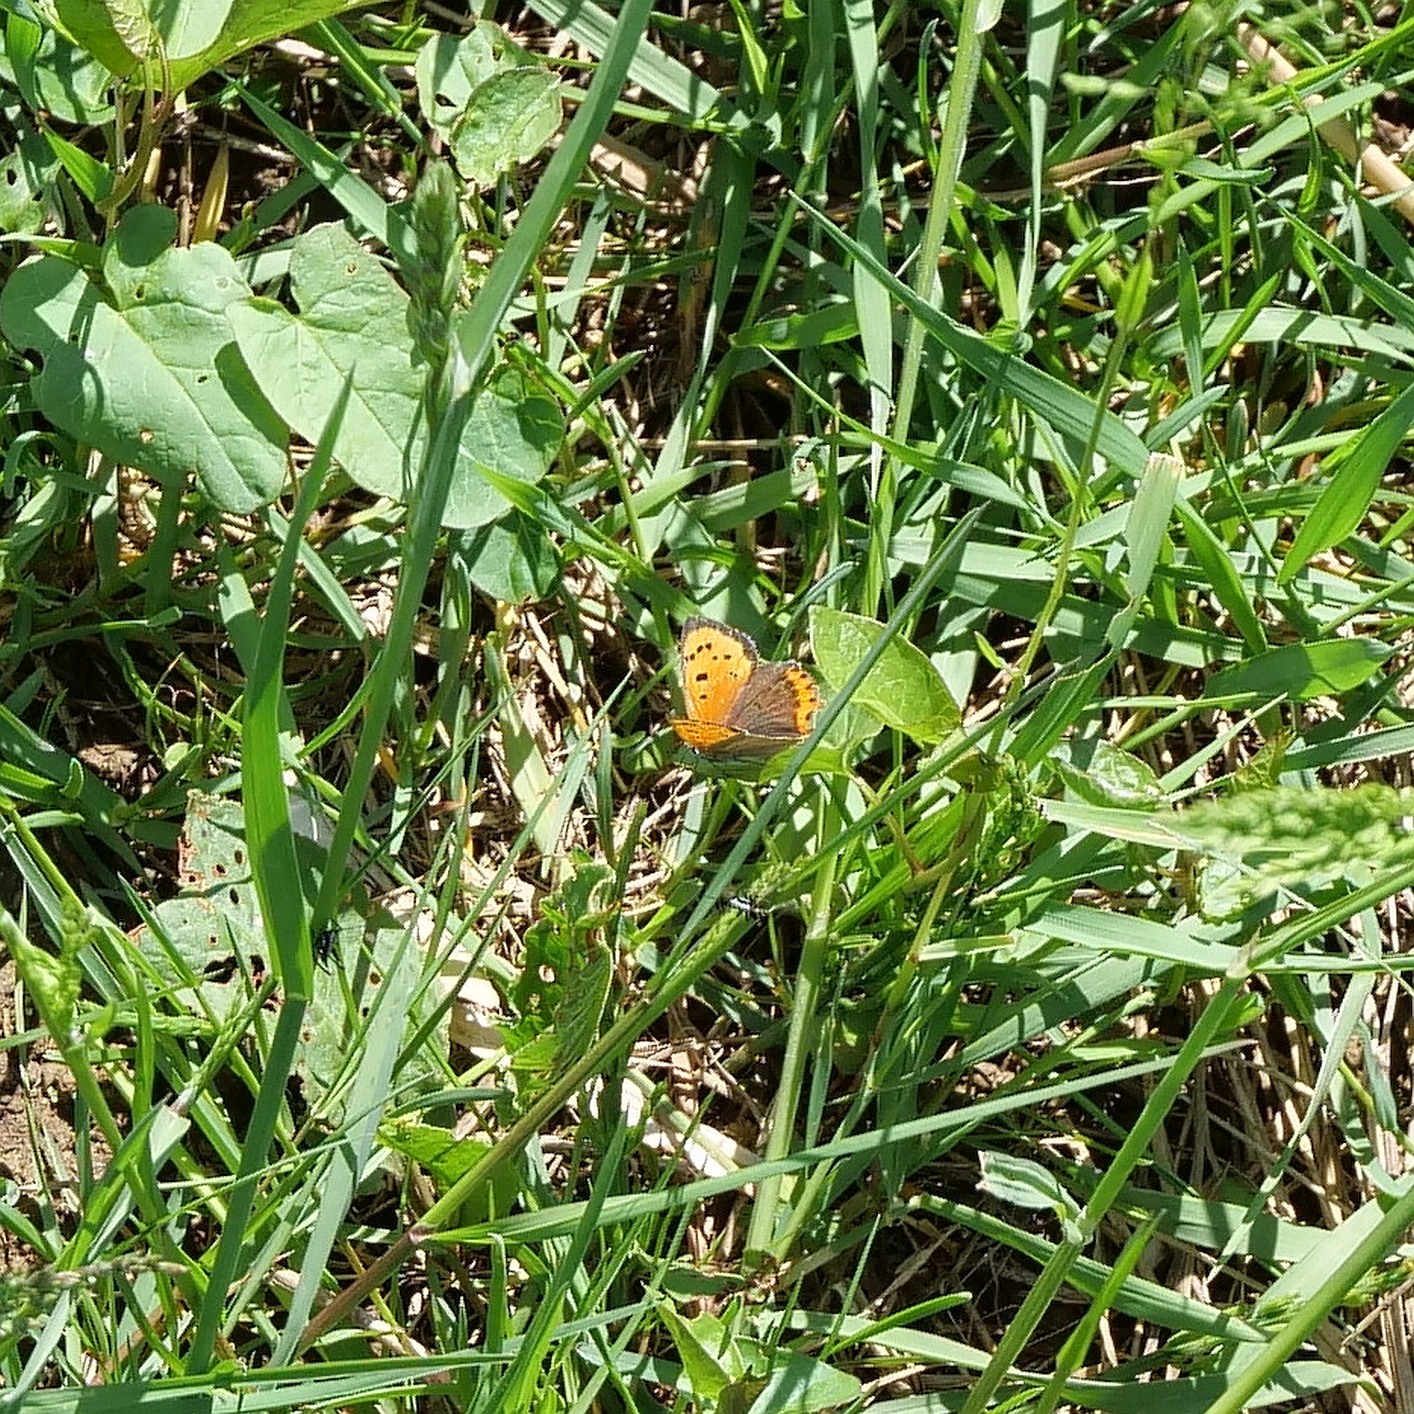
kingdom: Animalia
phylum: Arthropoda
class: Insecta
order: Lepidoptera
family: Lycaenidae
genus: Lycaena
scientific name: Lycaena phlaeas
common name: Small copper
